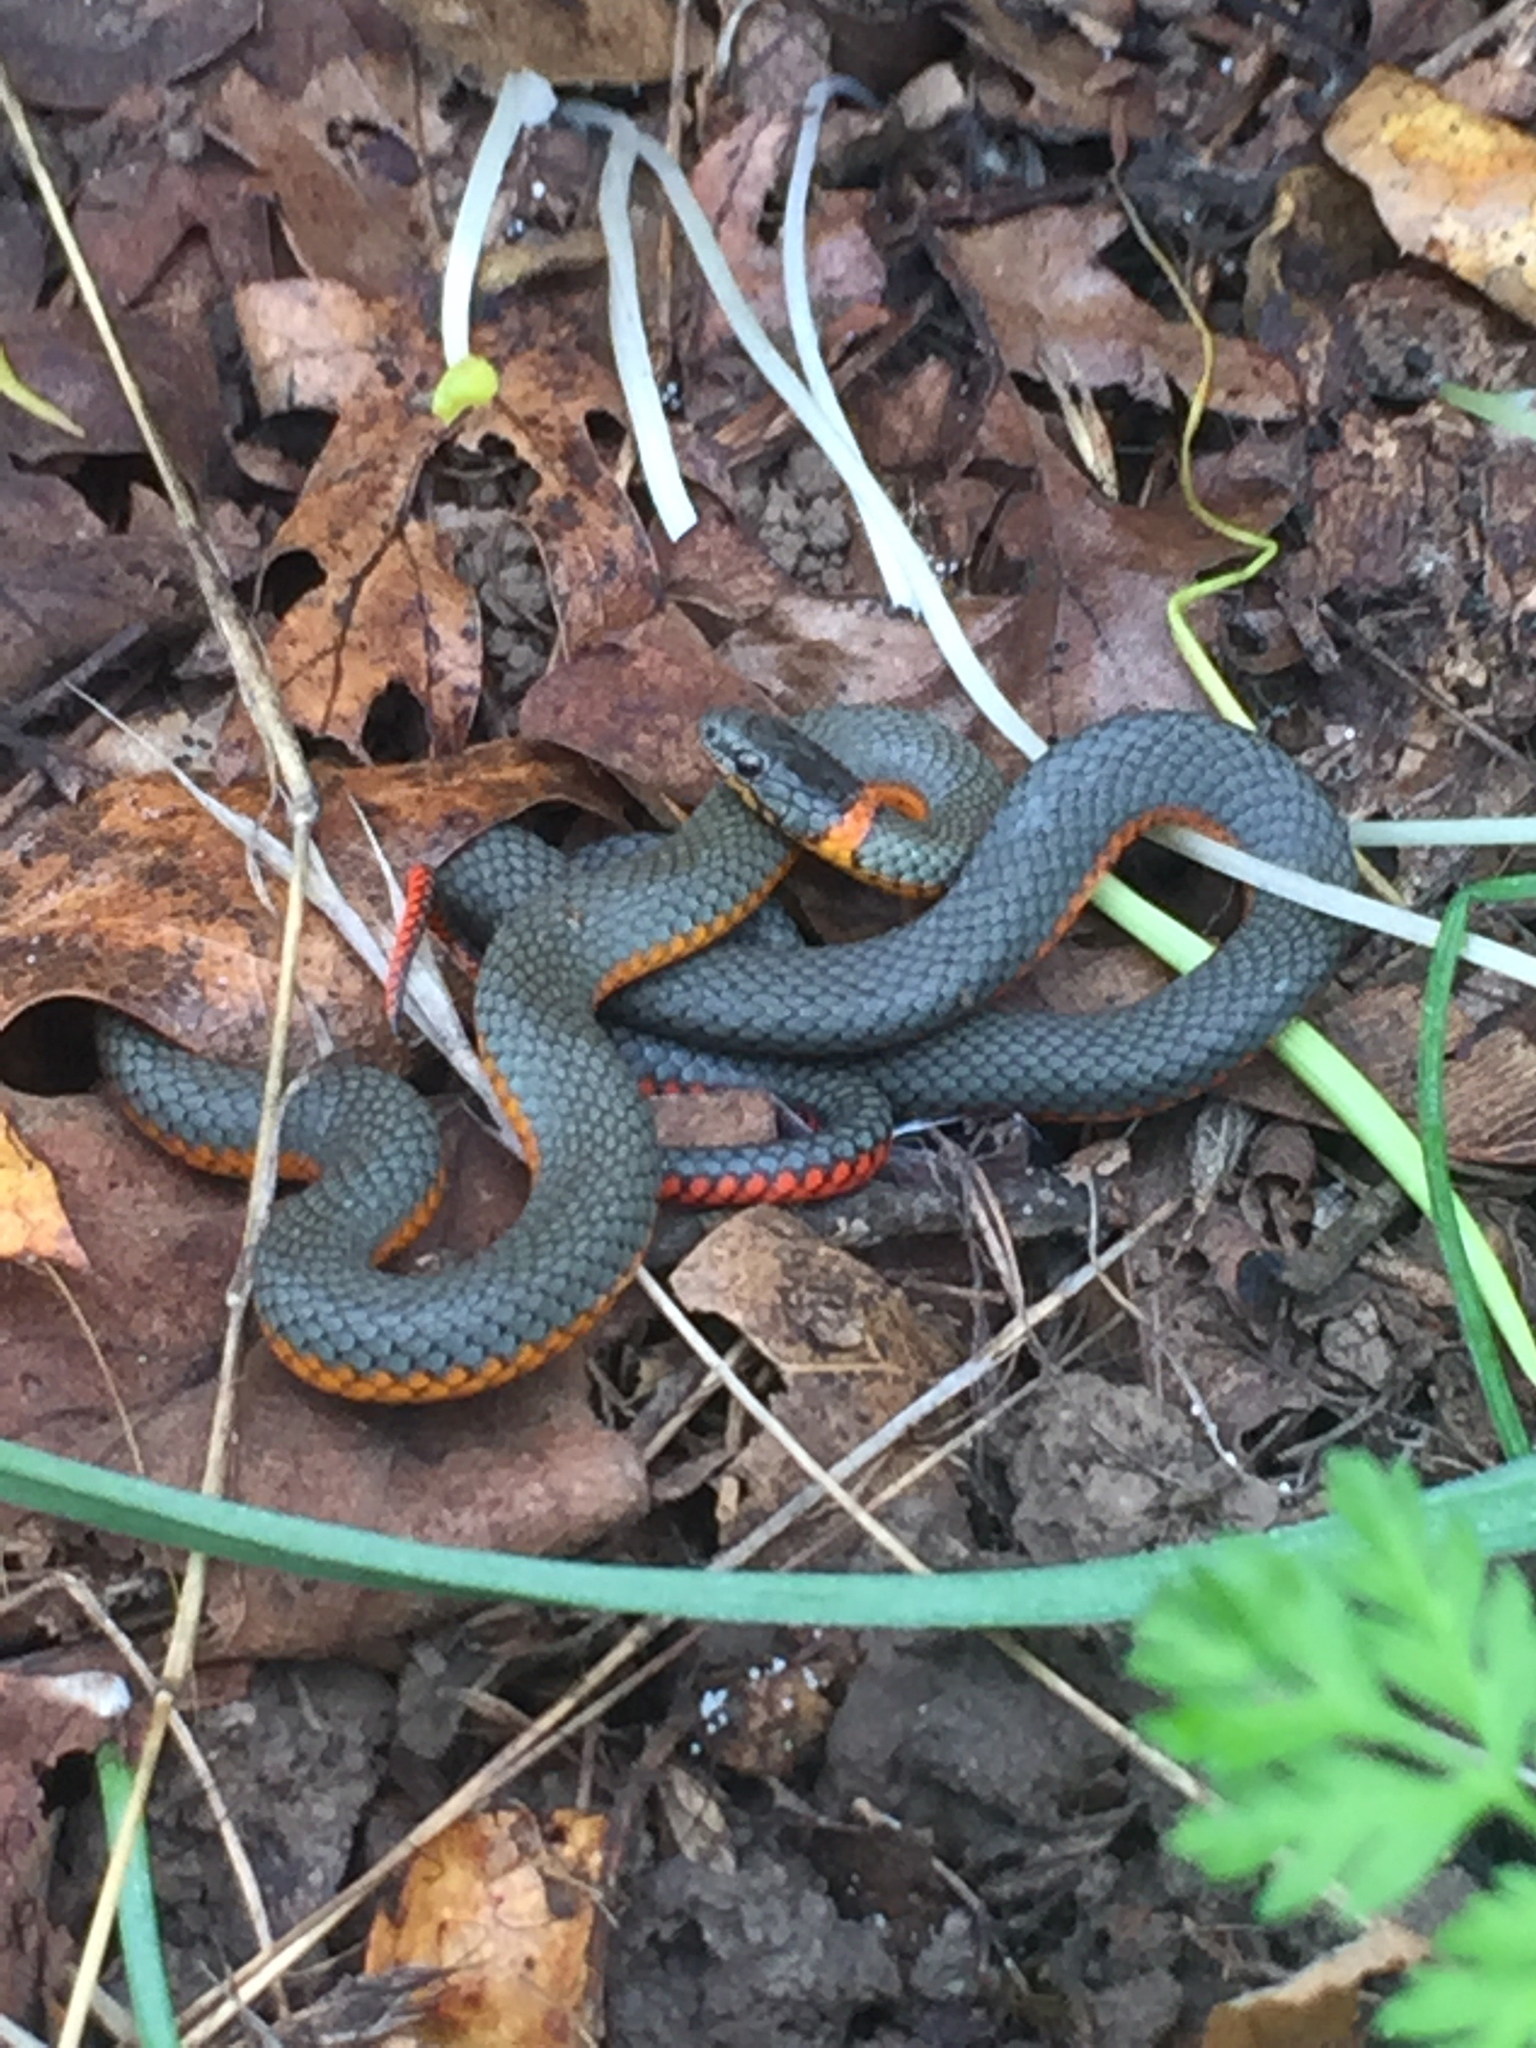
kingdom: Animalia
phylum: Chordata
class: Squamata
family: Colubridae
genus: Diadophis
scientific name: Diadophis punctatus
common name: Ringneck snake
